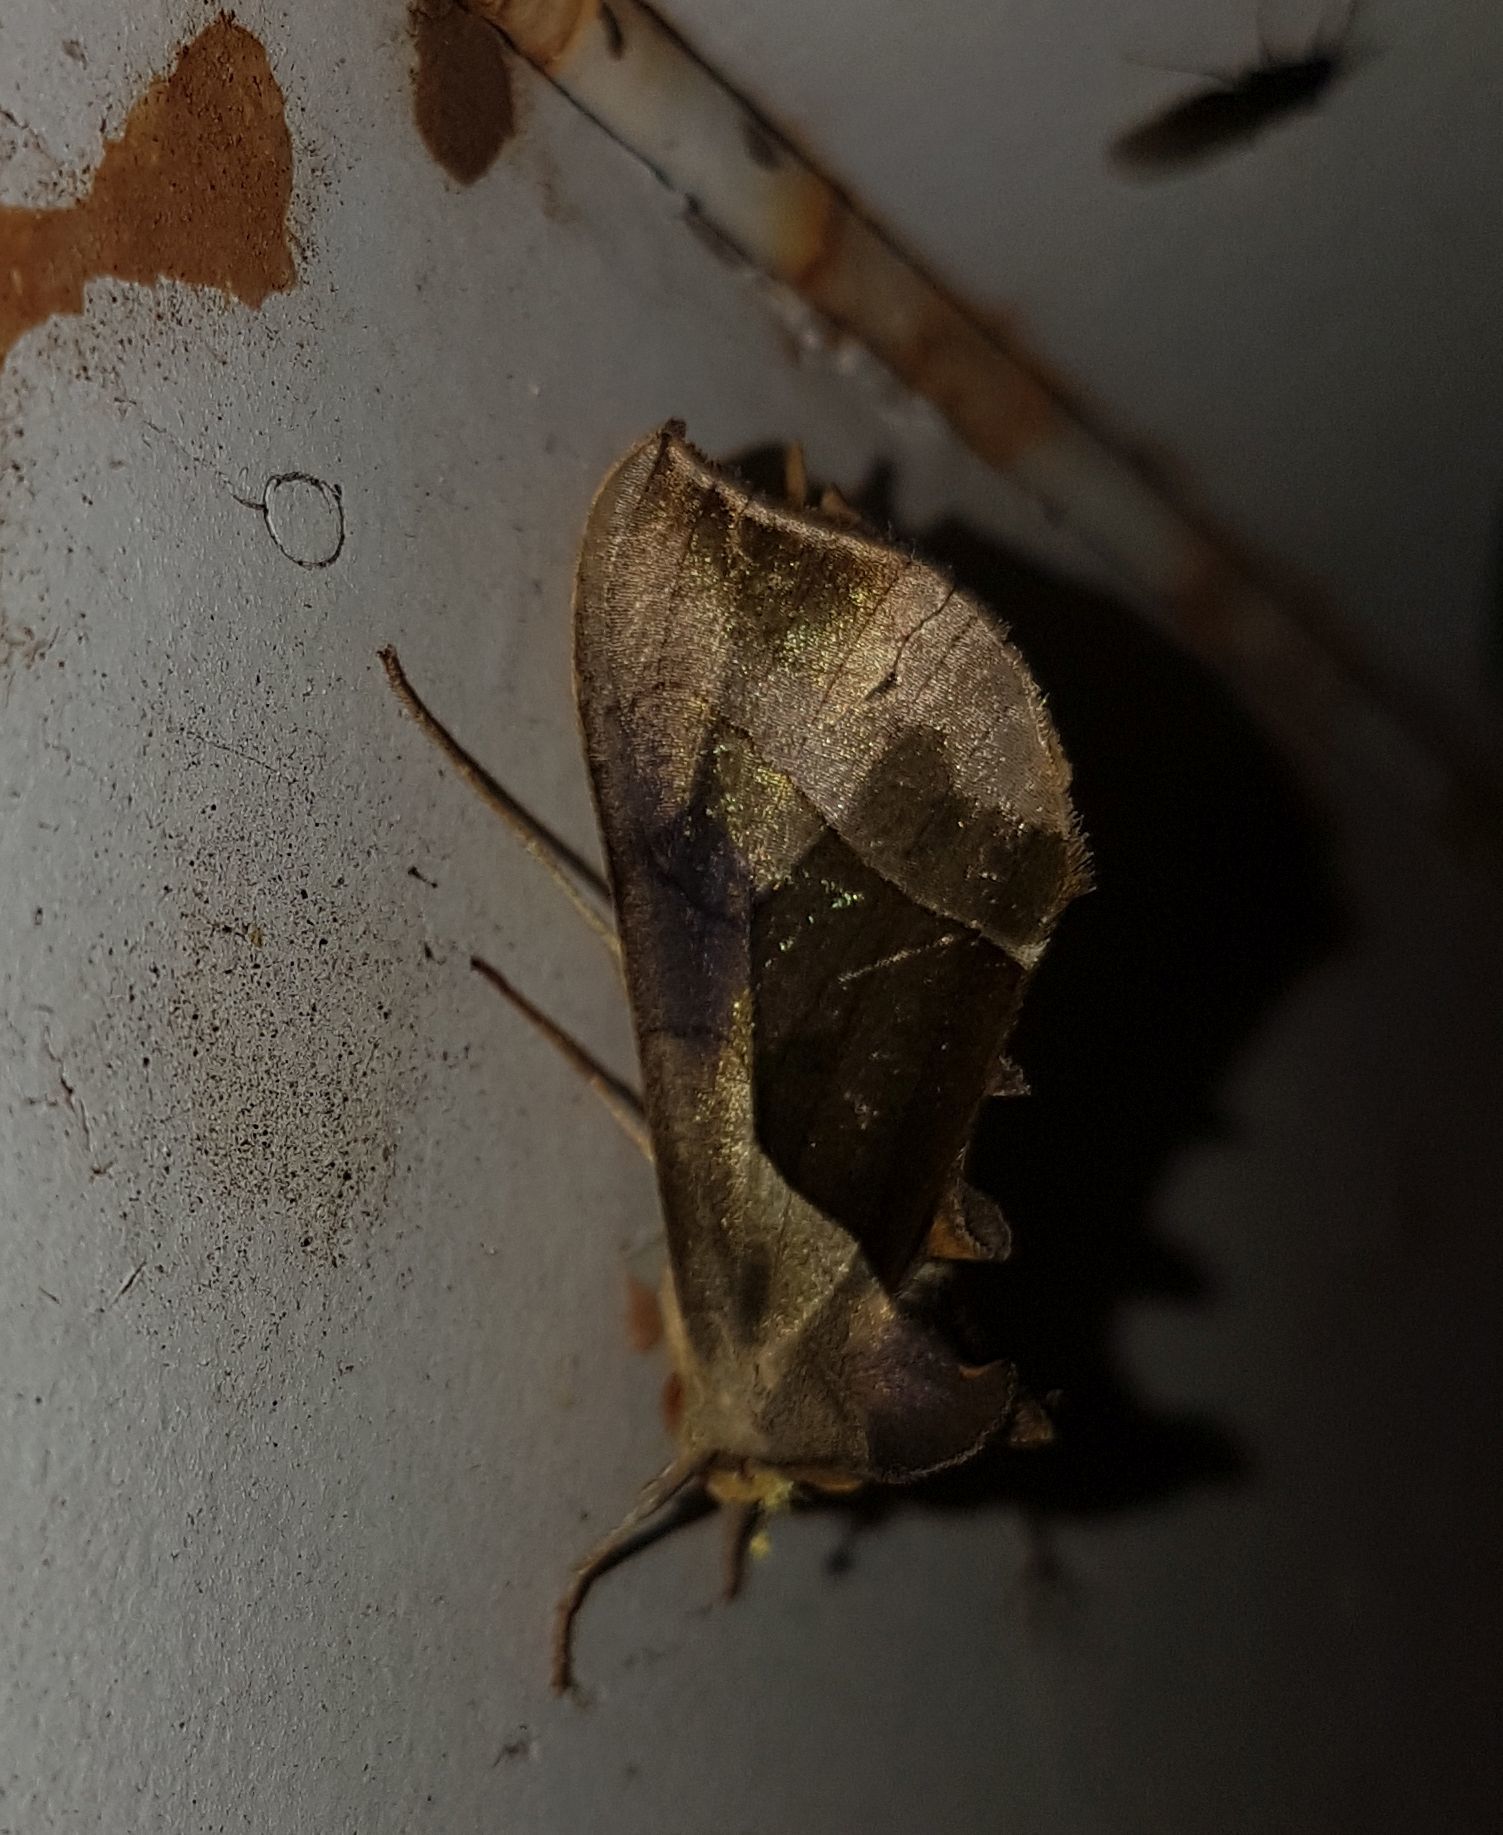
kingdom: Animalia
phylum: Arthropoda
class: Insecta
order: Lepidoptera
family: Noctuidae
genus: Diachrysia
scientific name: Diachrysia balluca
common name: Green-patched looper moth
